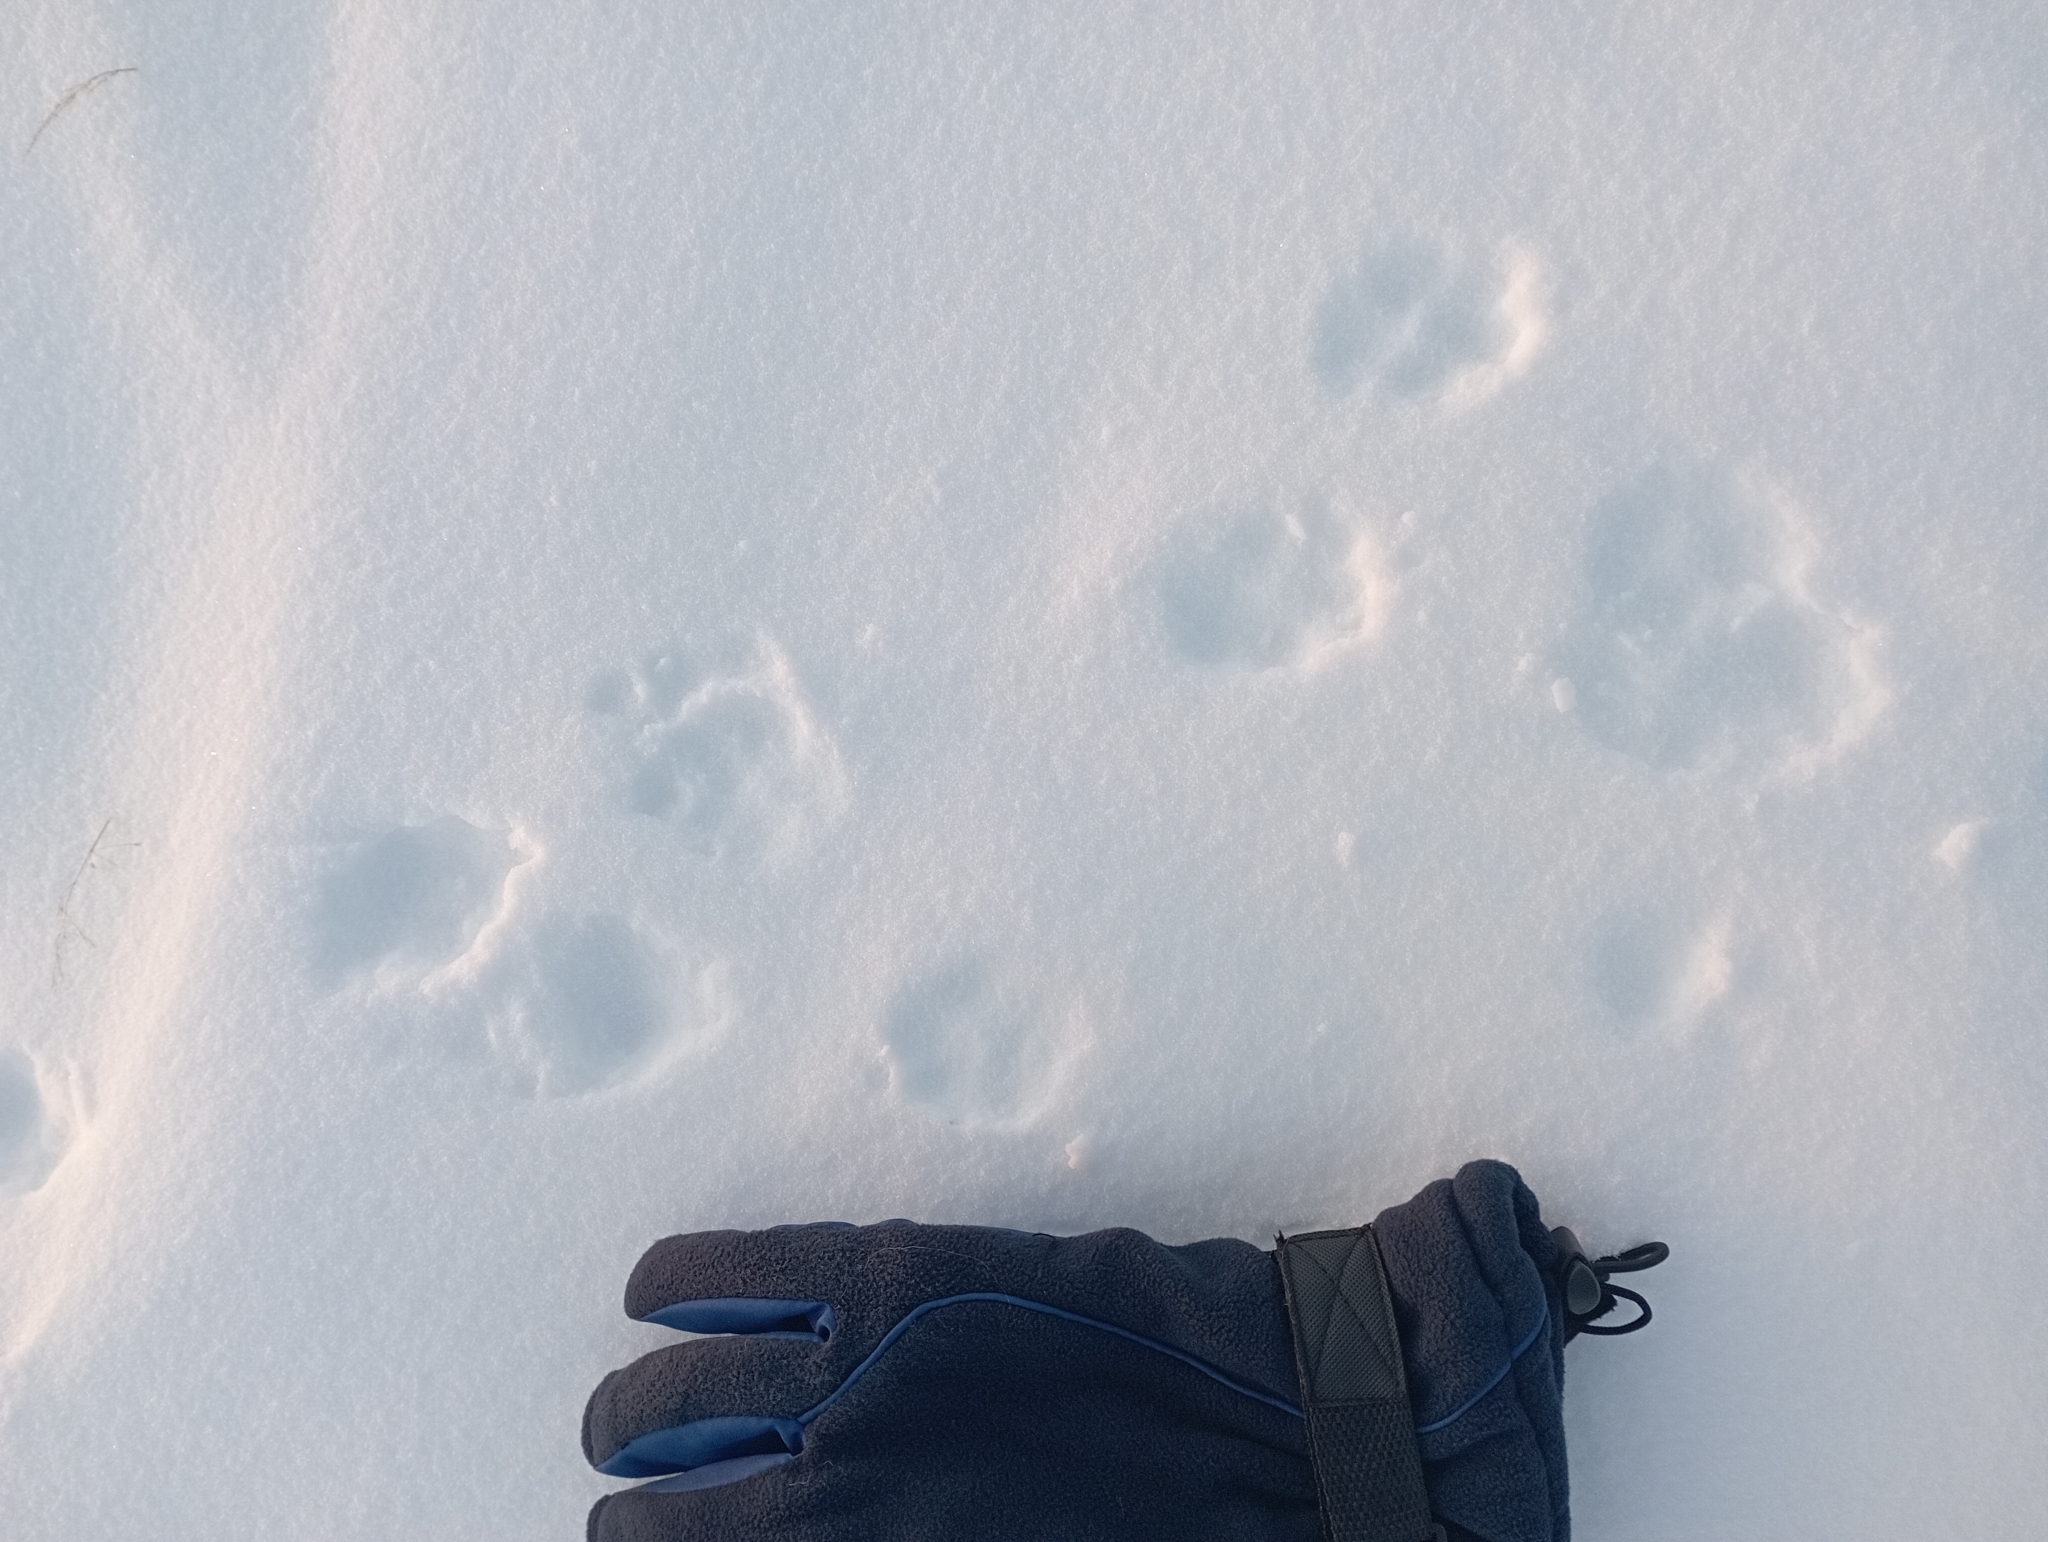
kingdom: Animalia
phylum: Chordata
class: Mammalia
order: Carnivora
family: Canidae
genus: Vulpes
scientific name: Vulpes lagopus
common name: Arctic fox
